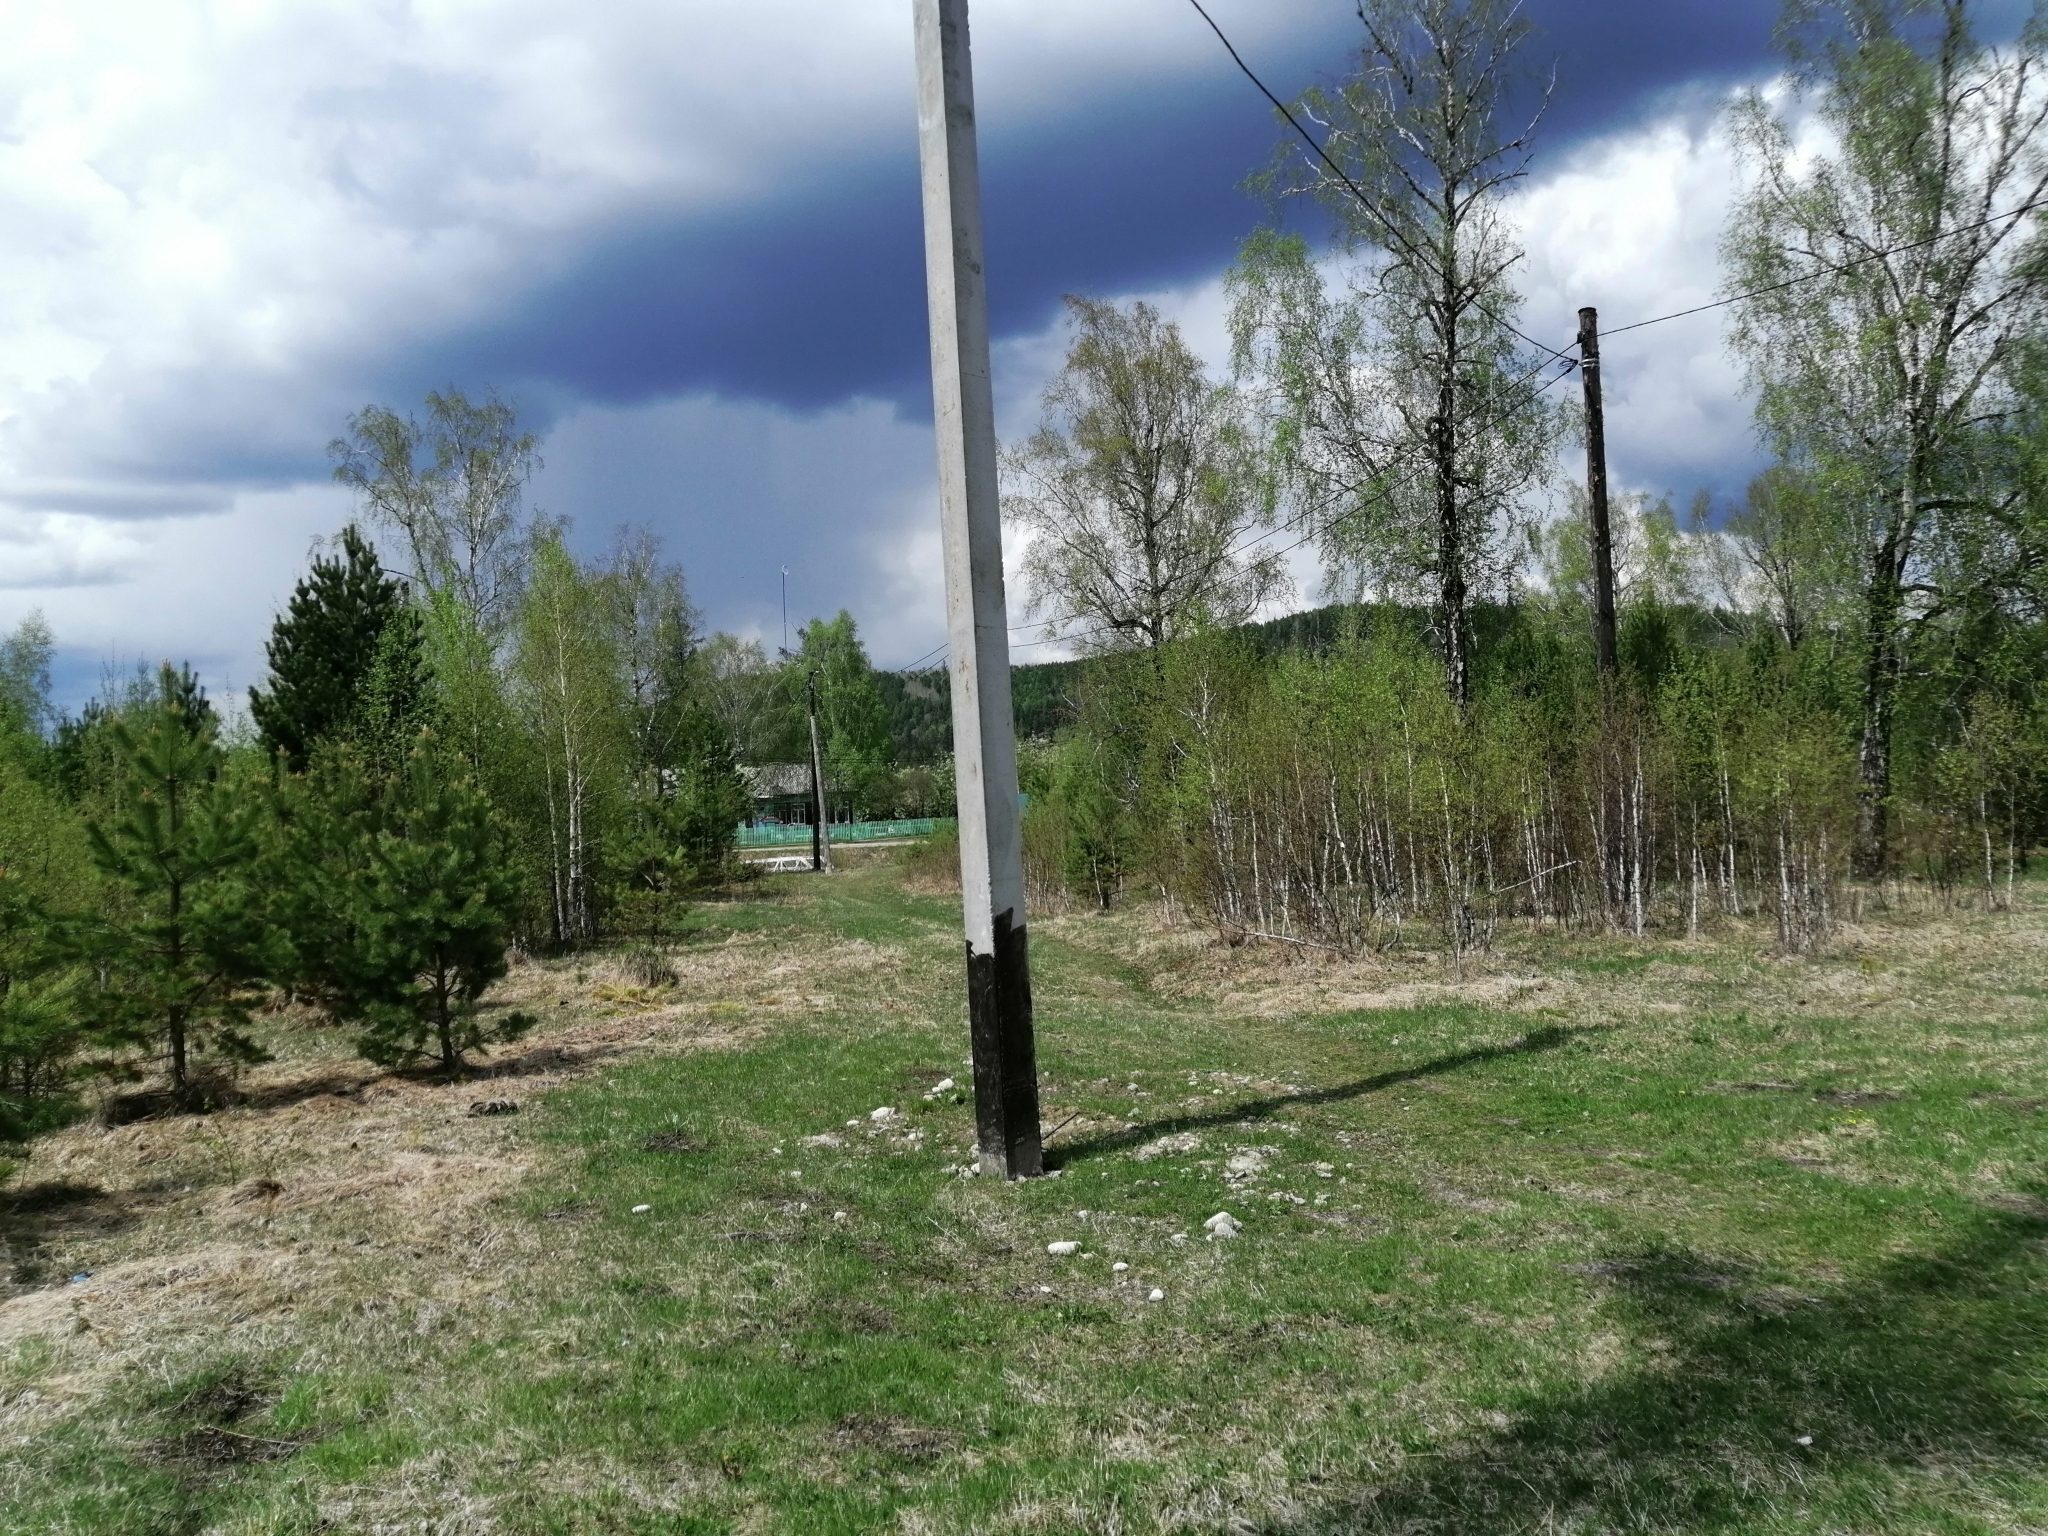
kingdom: Plantae
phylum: Tracheophyta
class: Pinopsida
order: Pinales
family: Pinaceae
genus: Pinus
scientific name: Pinus sylvestris
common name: Scots pine
